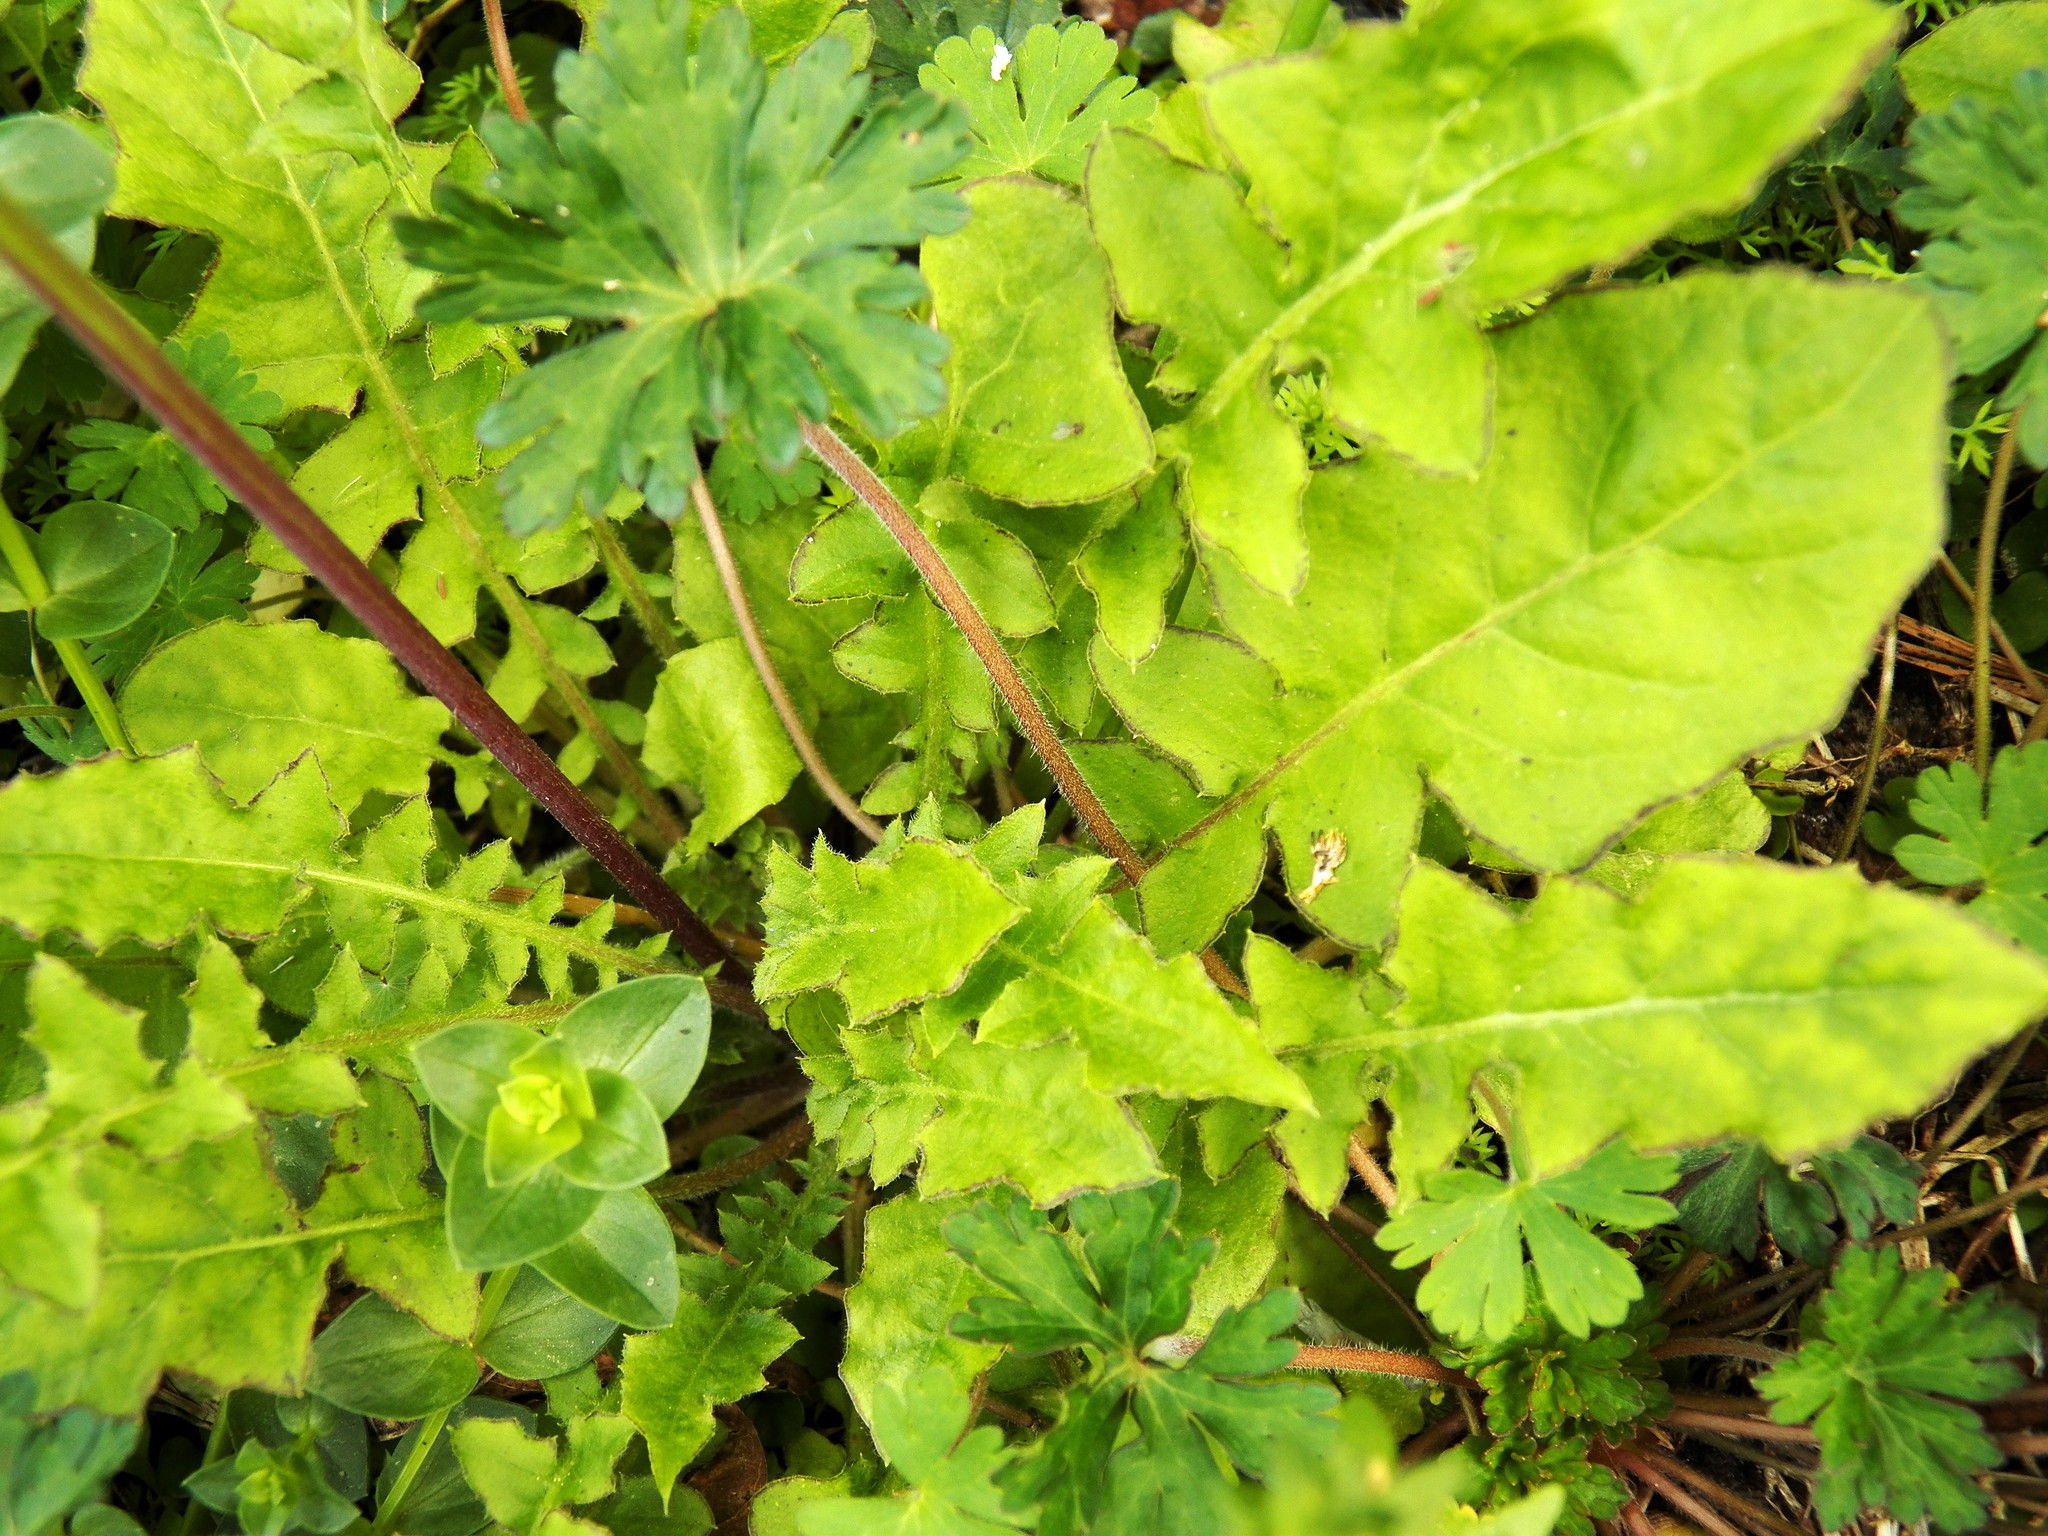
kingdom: Plantae
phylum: Tracheophyta
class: Magnoliopsida
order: Asterales
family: Asteraceae
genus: Youngia
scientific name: Youngia japonica
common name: Oriental false hawksbeard
